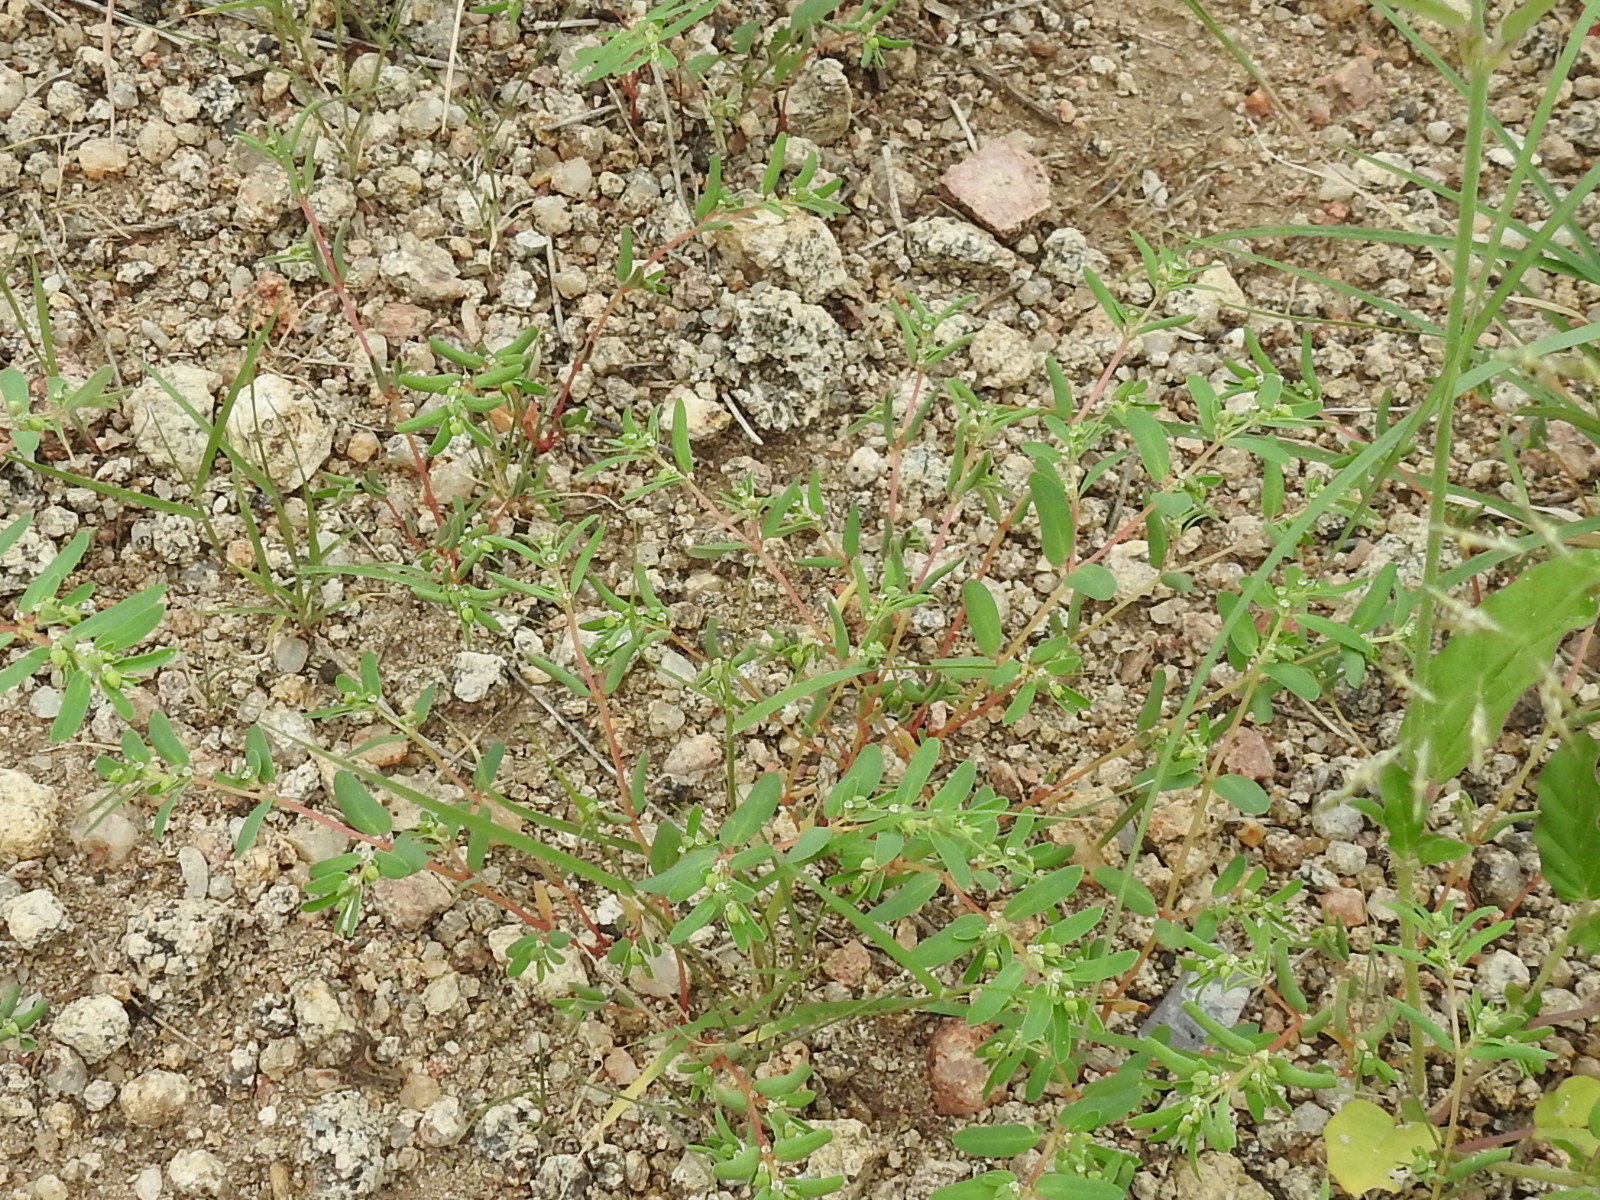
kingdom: Plantae
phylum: Tracheophyta
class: Magnoliopsida
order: Malpighiales
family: Euphorbiaceae
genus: Euphorbia
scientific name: Euphorbia serpillifolia
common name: Thyme-leaf spurge
